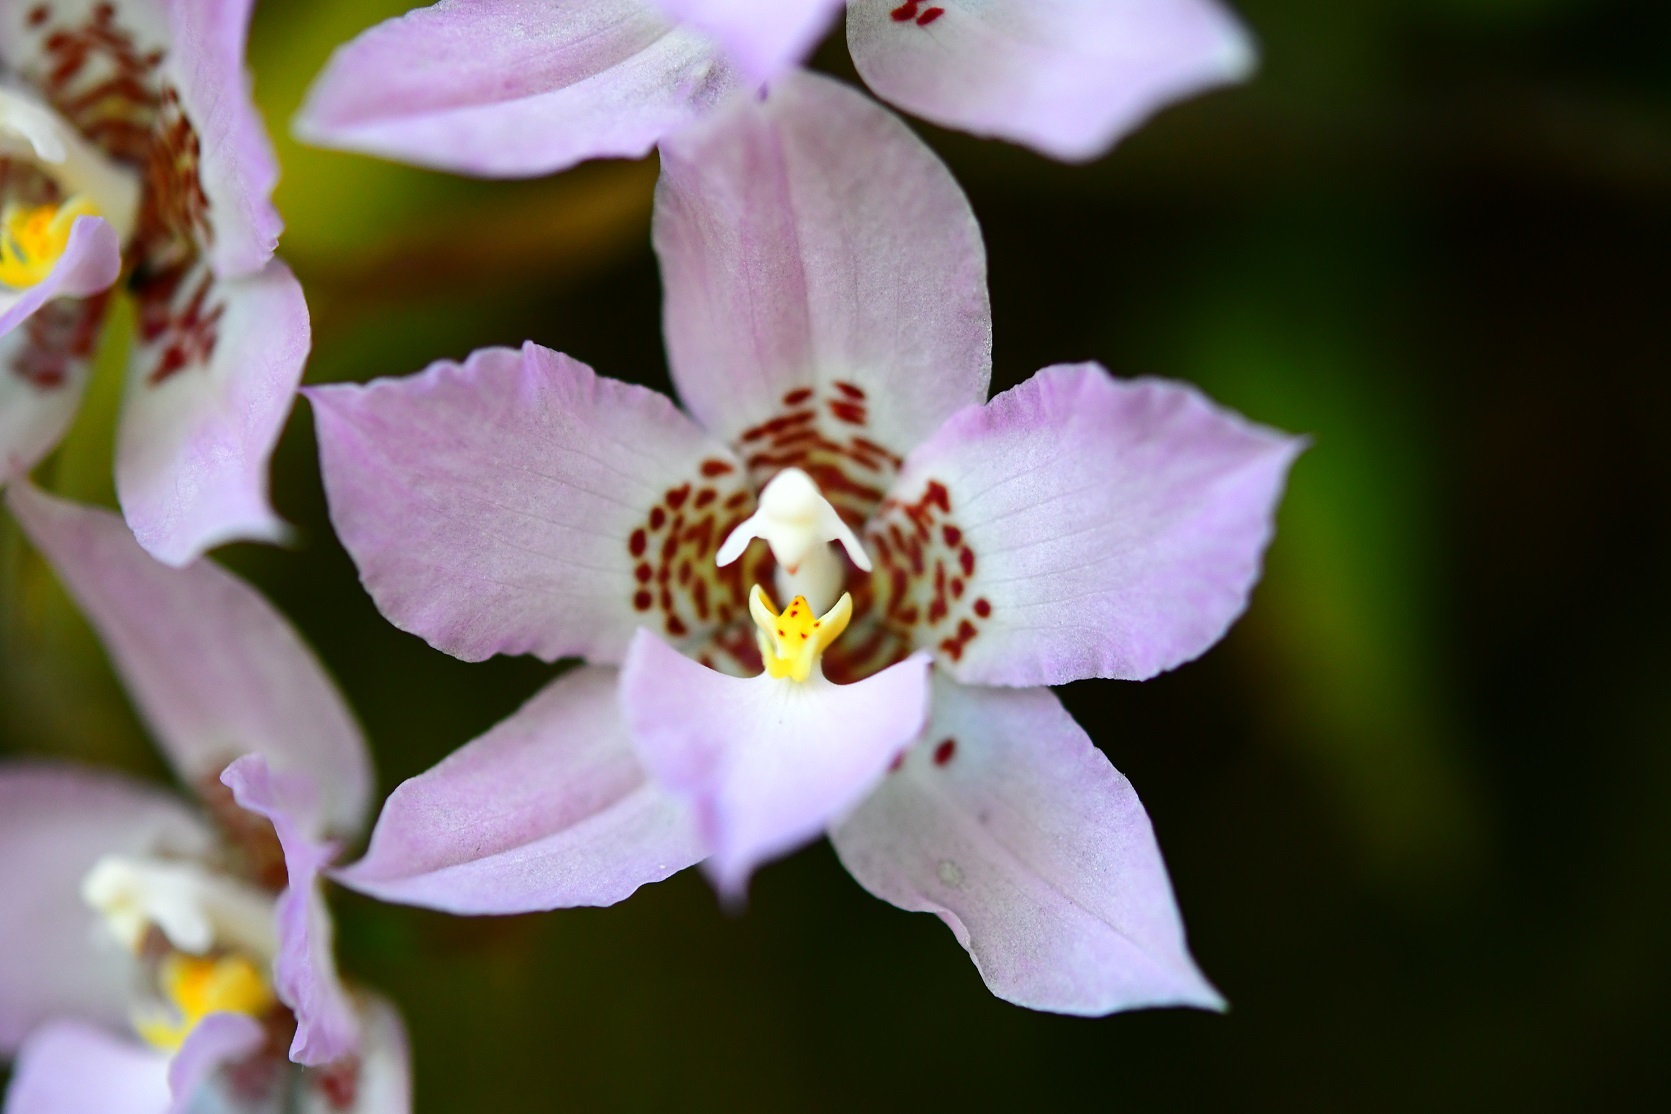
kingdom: Plantae
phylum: Tracheophyta
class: Liliopsida
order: Asparagales
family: Orchidaceae
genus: Rhynchostele
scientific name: Rhynchostele cervantesii
